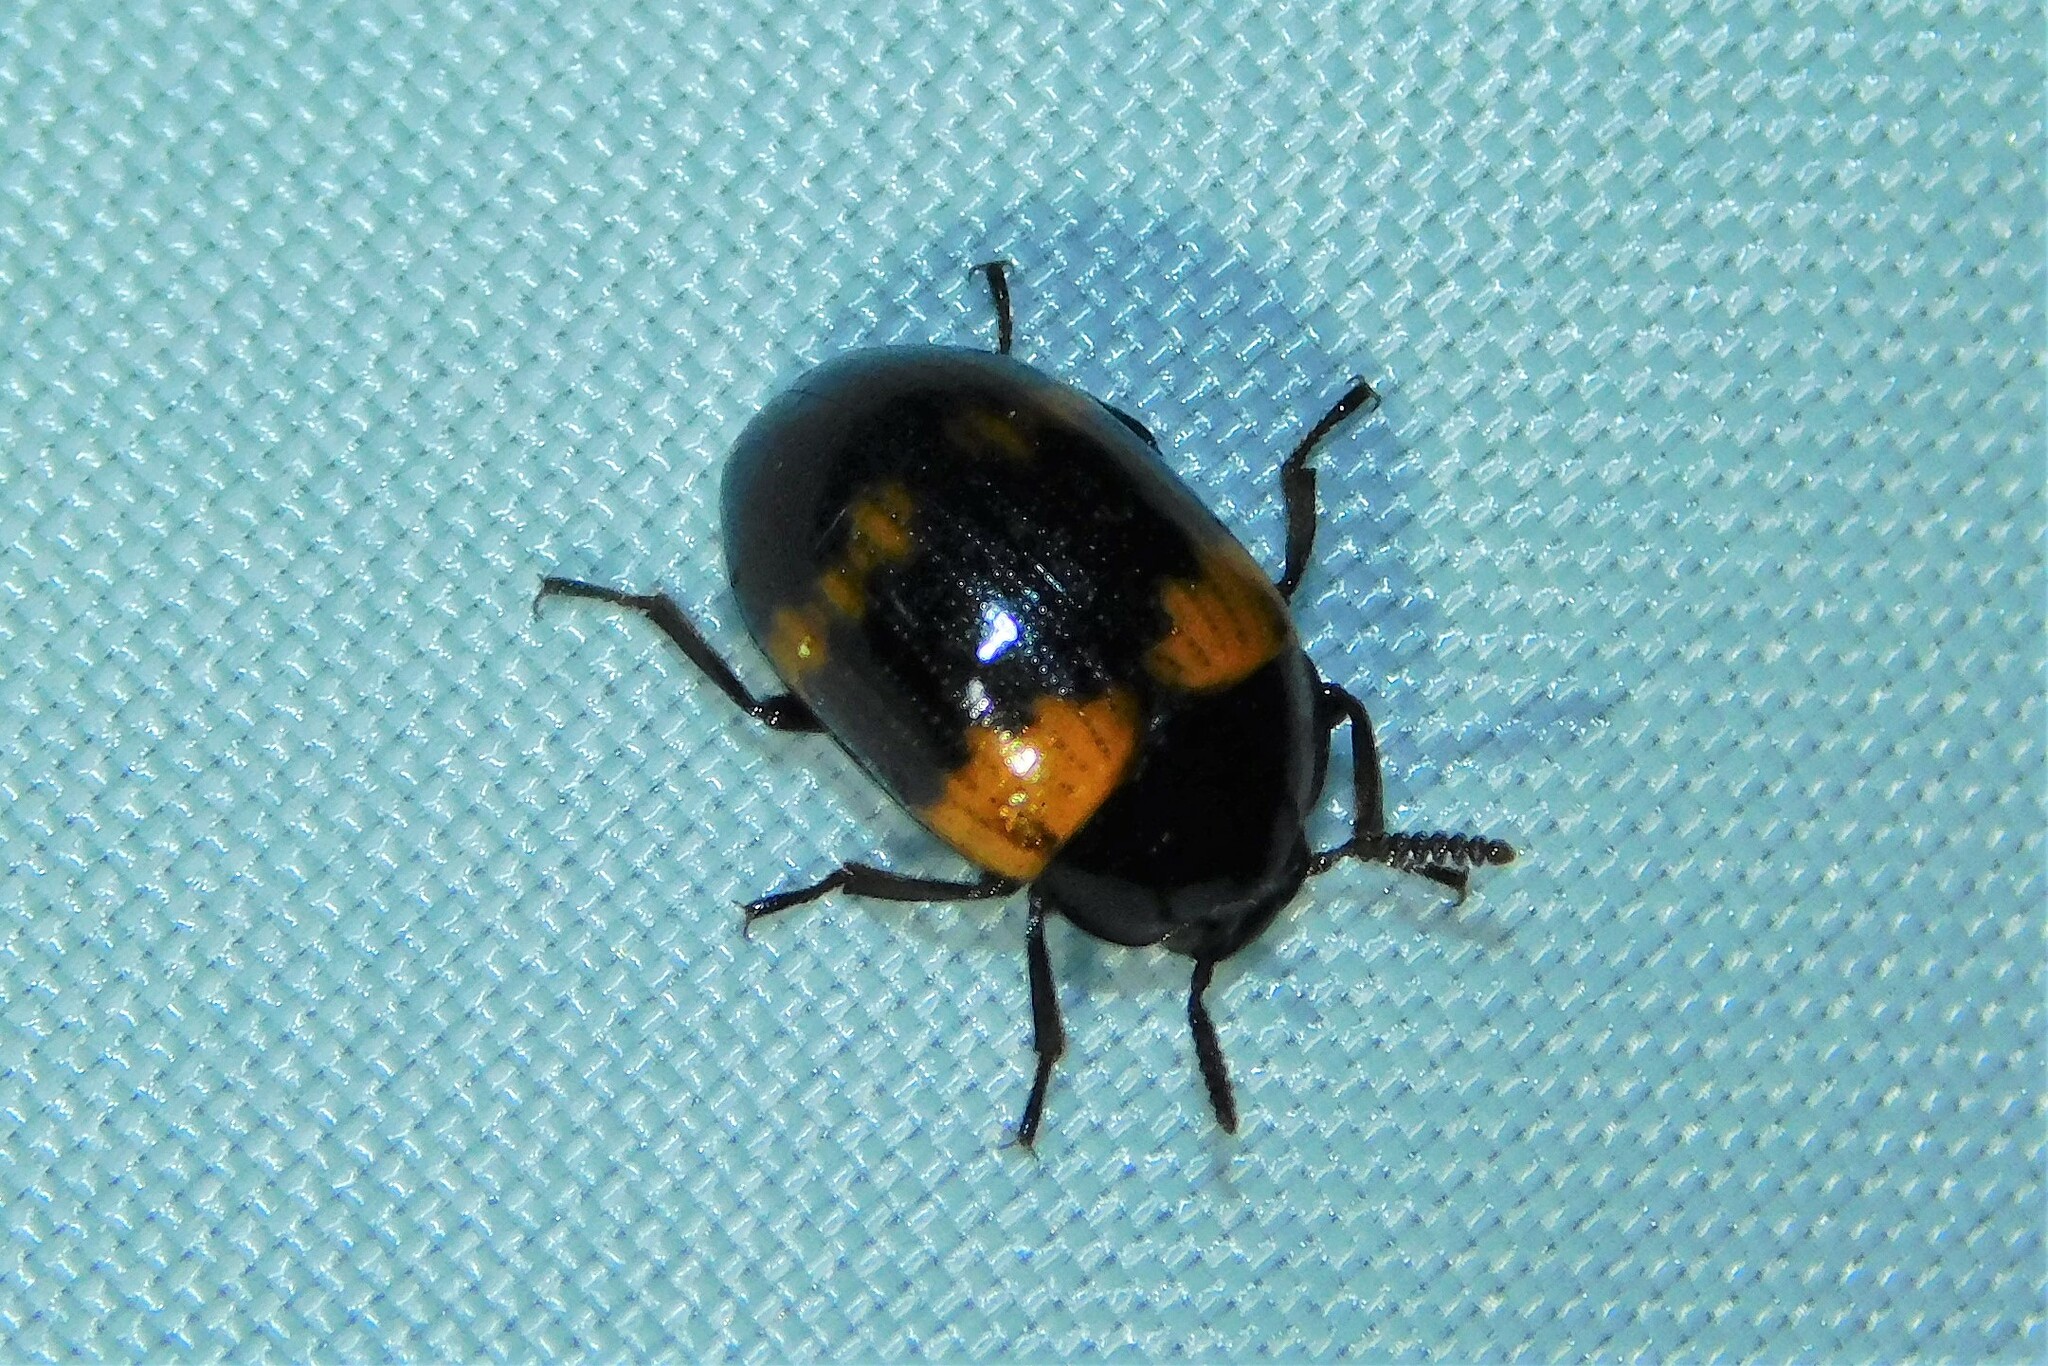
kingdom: Animalia
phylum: Arthropoda
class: Insecta
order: Coleoptera
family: Tenebrionidae
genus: Diaperis
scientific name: Diaperis boleti
